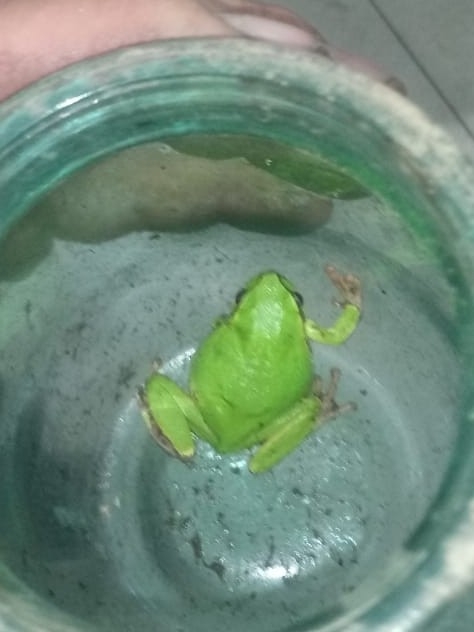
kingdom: Animalia
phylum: Chordata
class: Amphibia
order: Anura
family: Hylidae
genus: Hyla
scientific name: Hyla orientalis
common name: Caucasian treefrog
